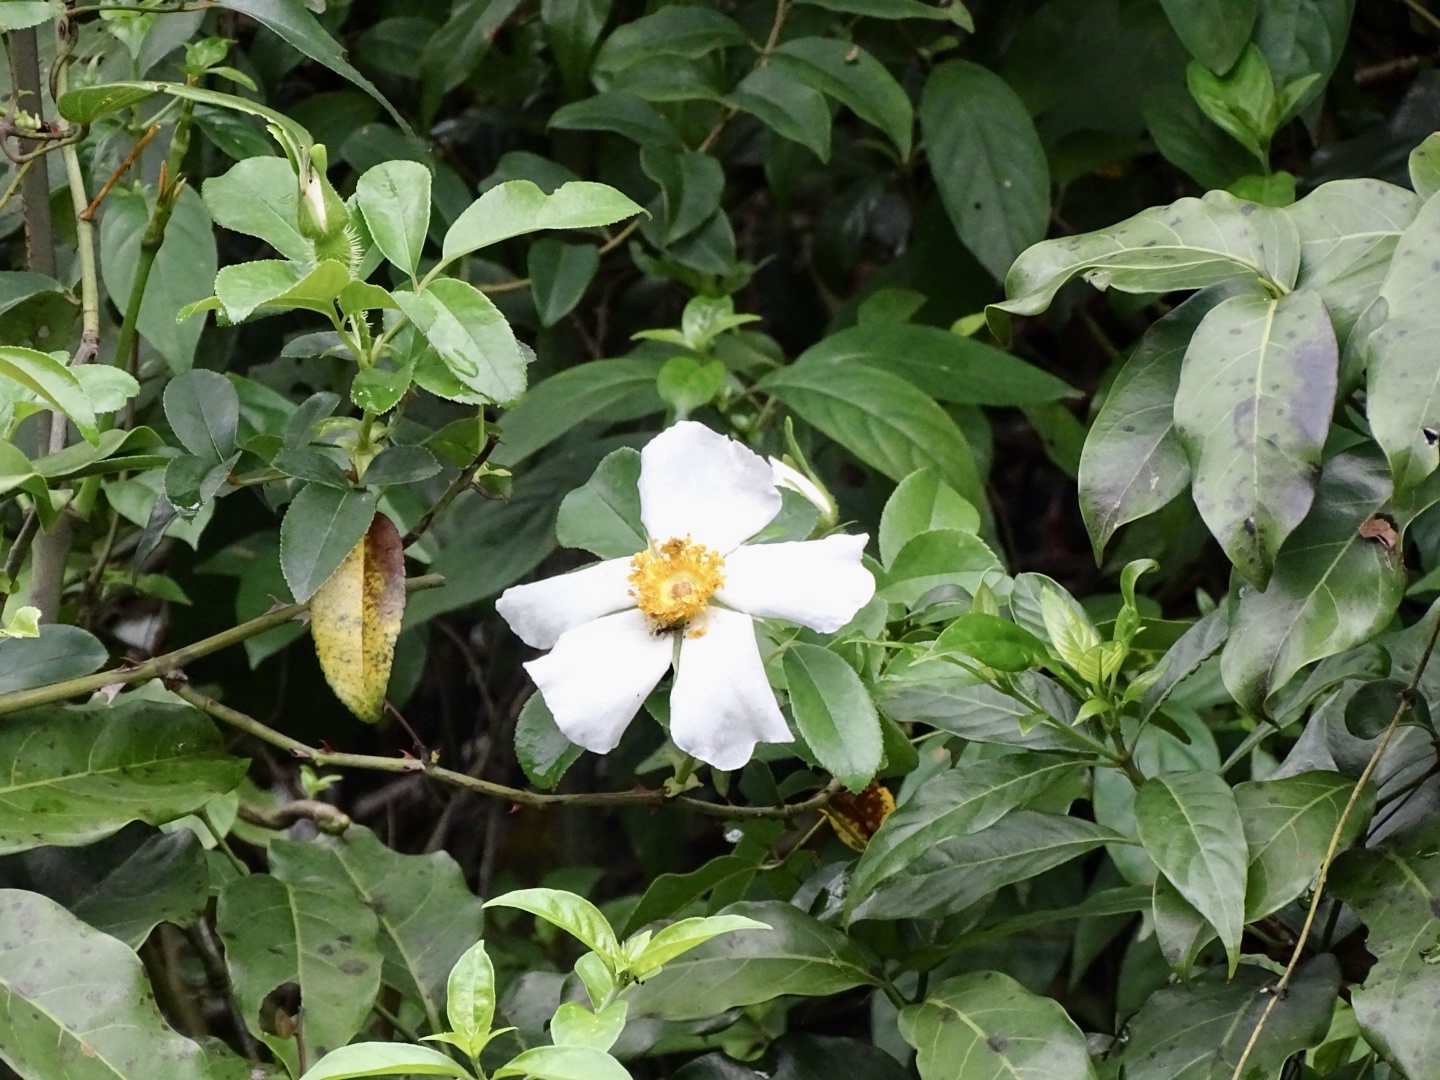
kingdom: Plantae
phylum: Tracheophyta
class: Magnoliopsida
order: Rosales
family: Rosaceae
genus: Rosa
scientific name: Rosa laevigata
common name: Cherokee rose
